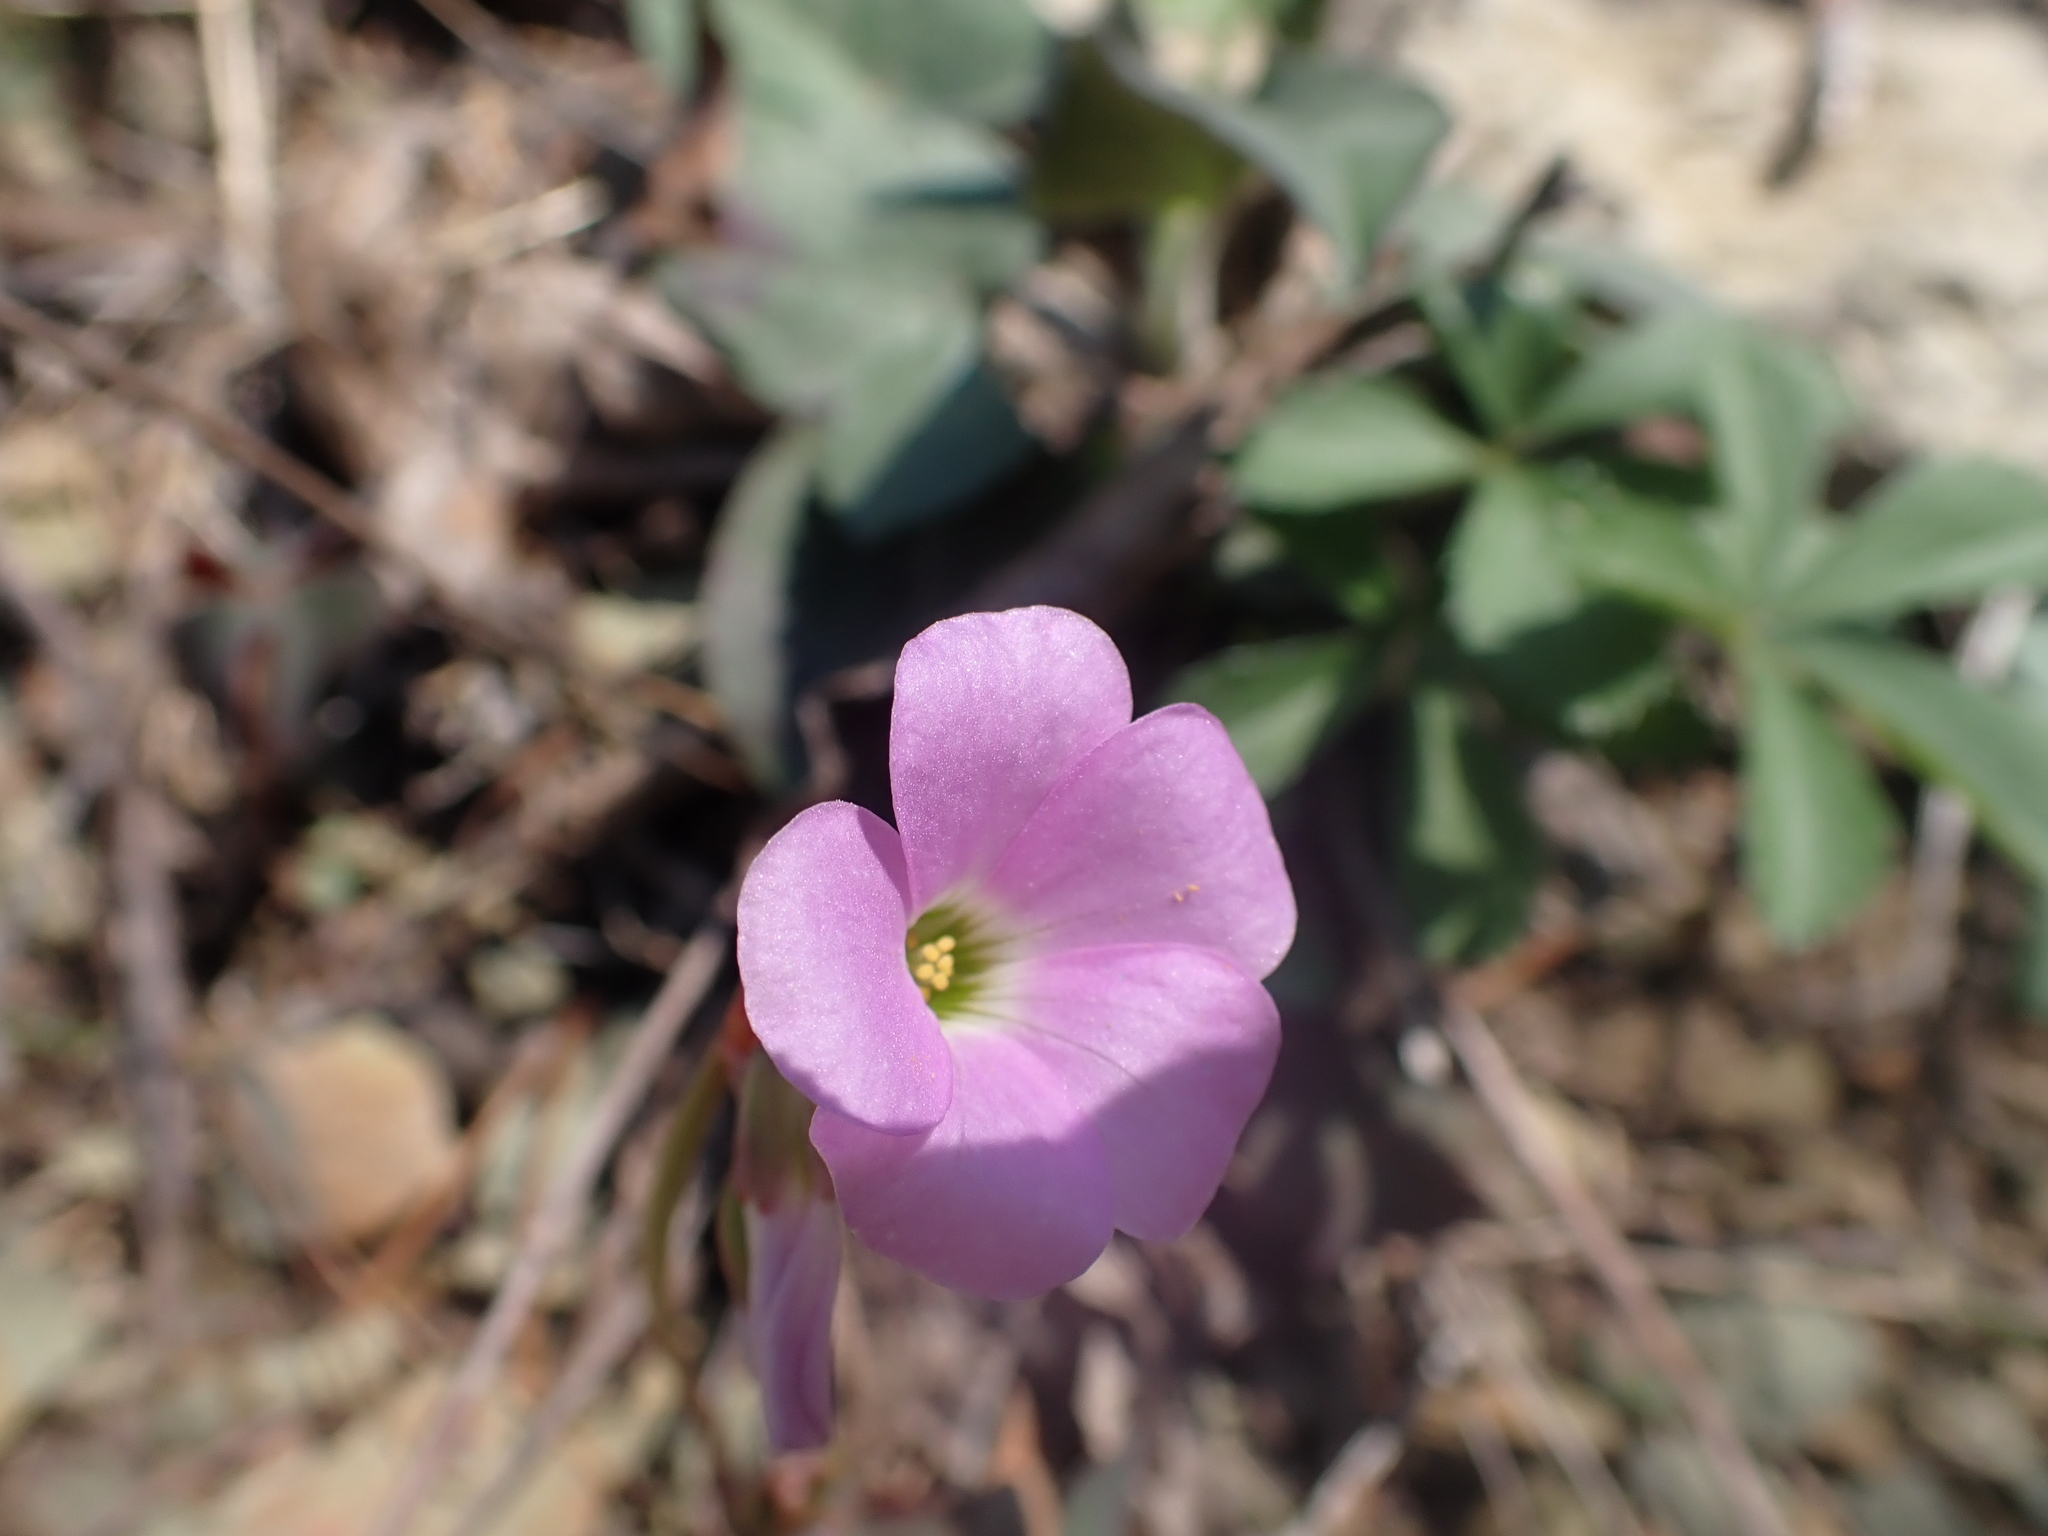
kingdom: Plantae
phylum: Tracheophyta
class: Magnoliopsida
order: Oxalidales
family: Oxalidaceae
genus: Oxalis
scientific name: Oxalis violacea
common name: Violet wood-sorrel
